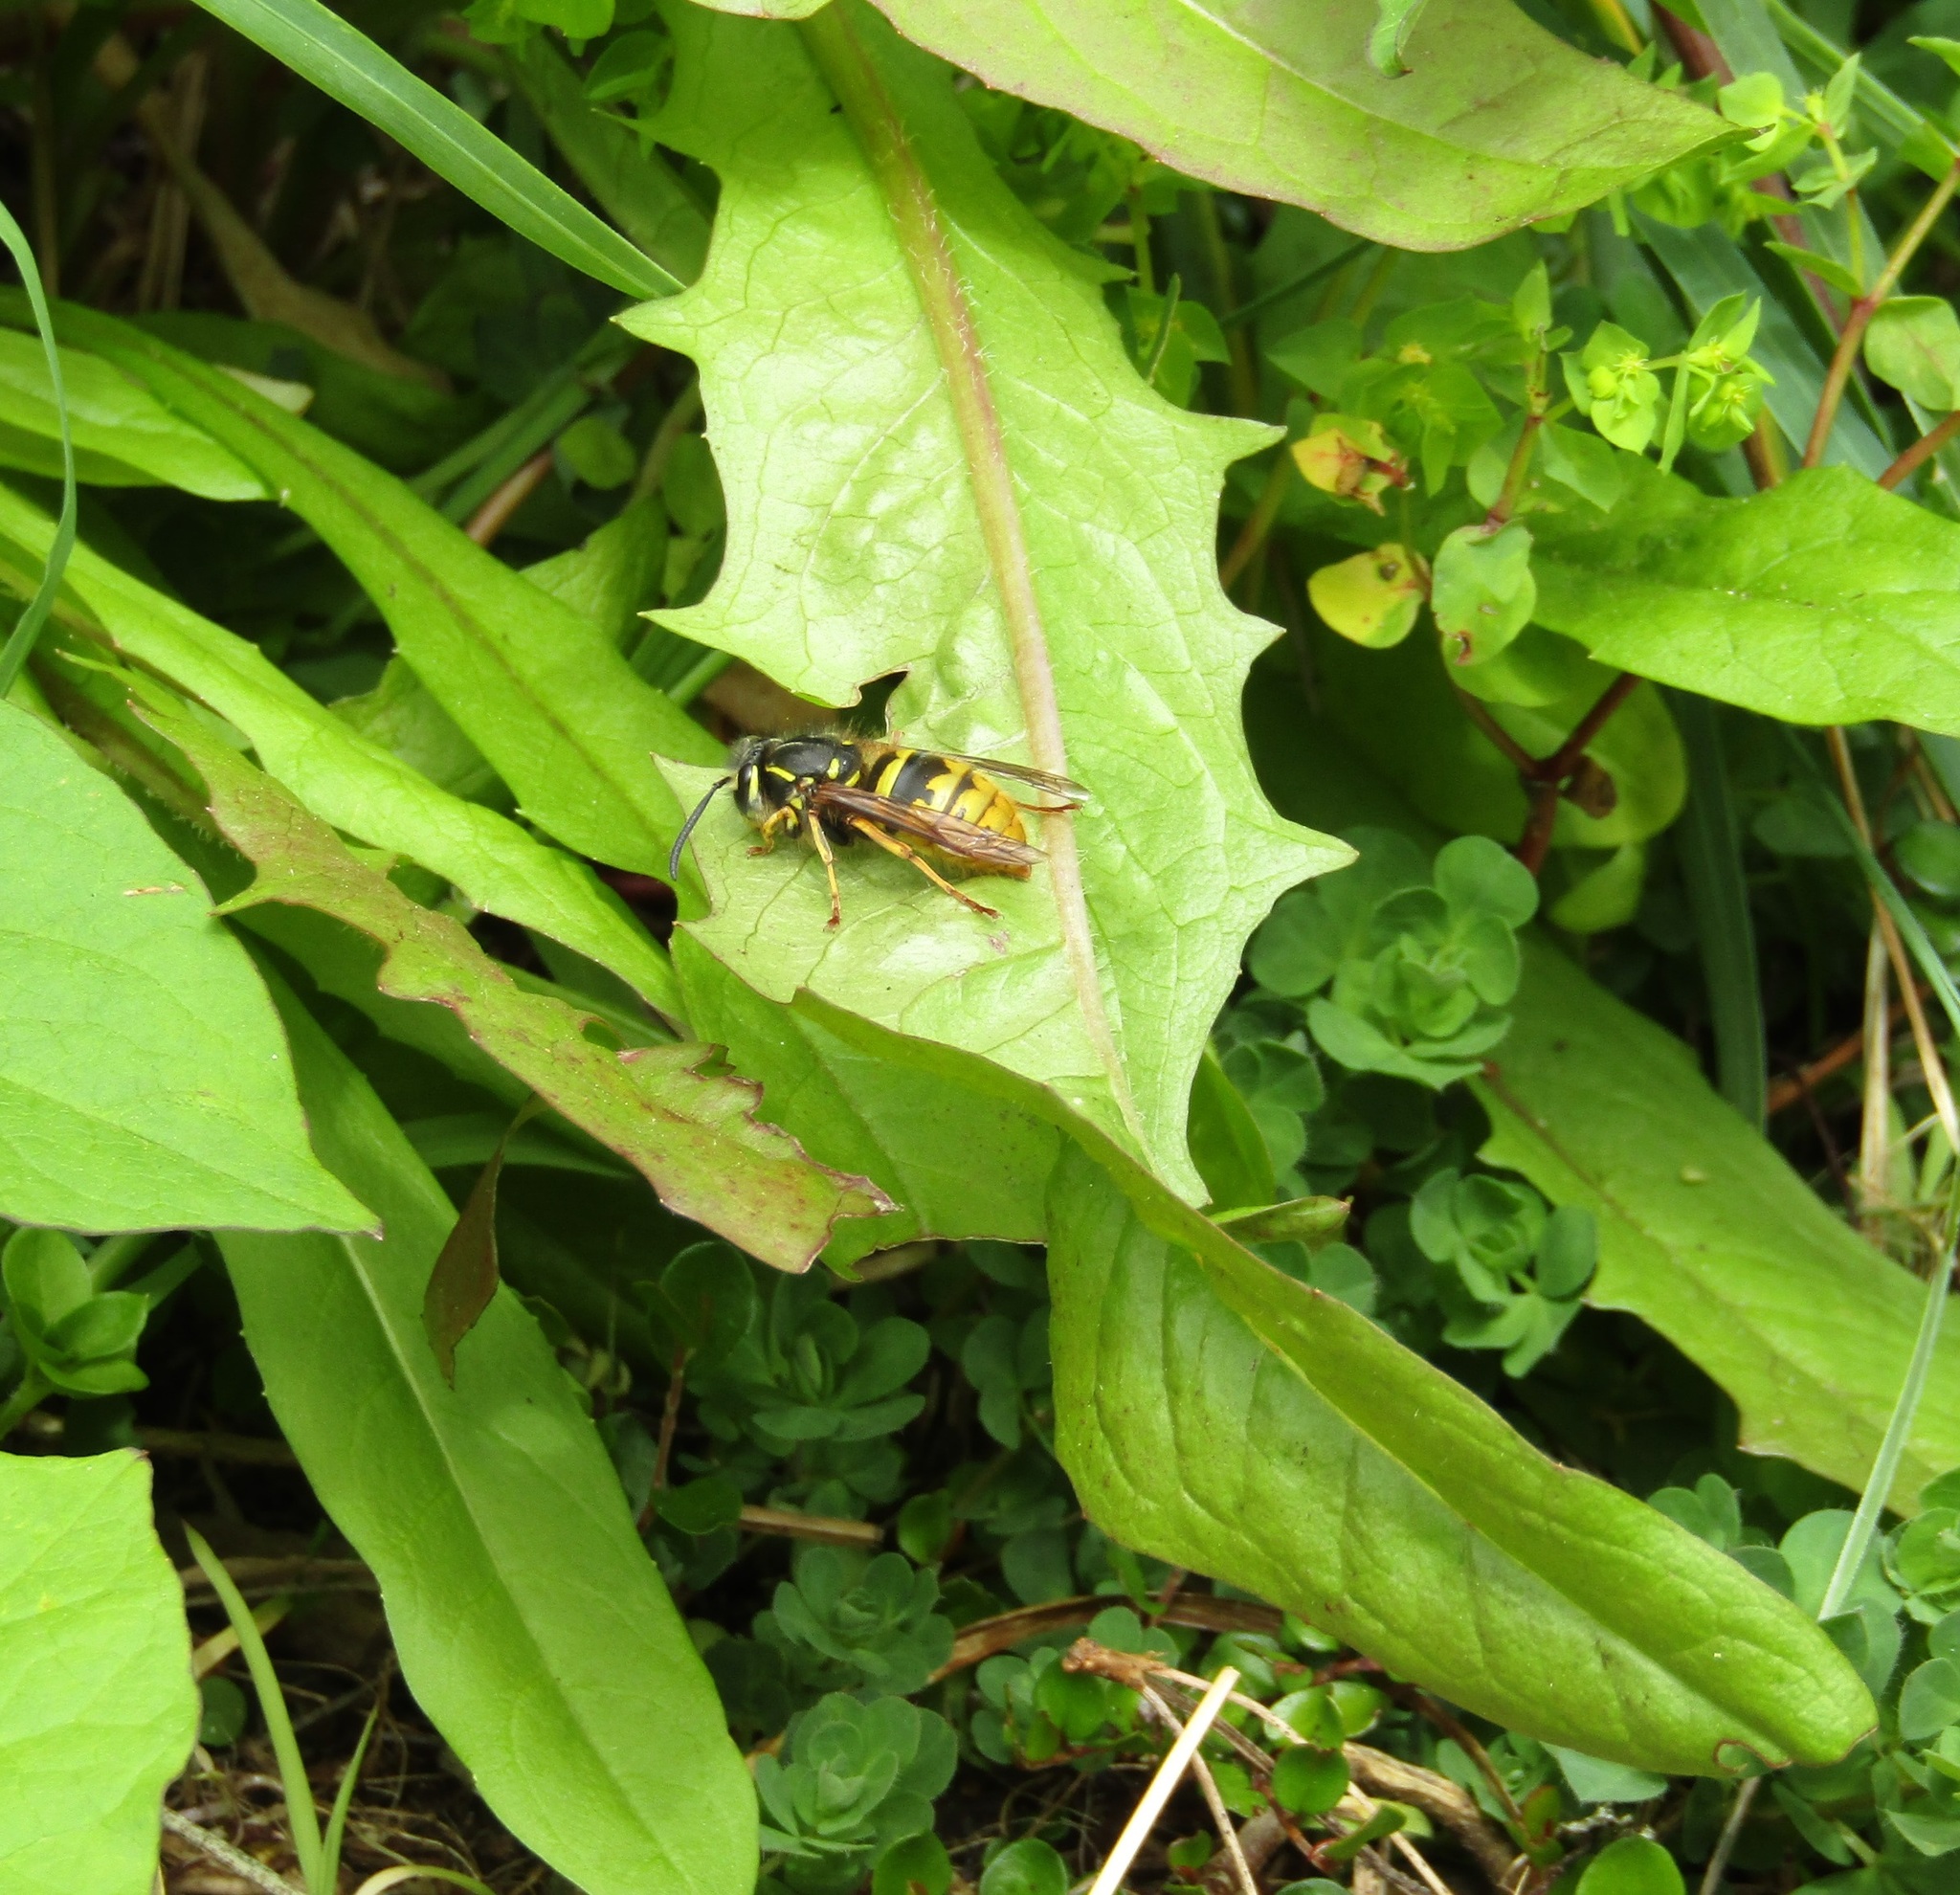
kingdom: Animalia
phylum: Arthropoda
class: Insecta
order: Hymenoptera
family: Vespidae
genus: Vespula
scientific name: Vespula vulgaris
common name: Common wasp
